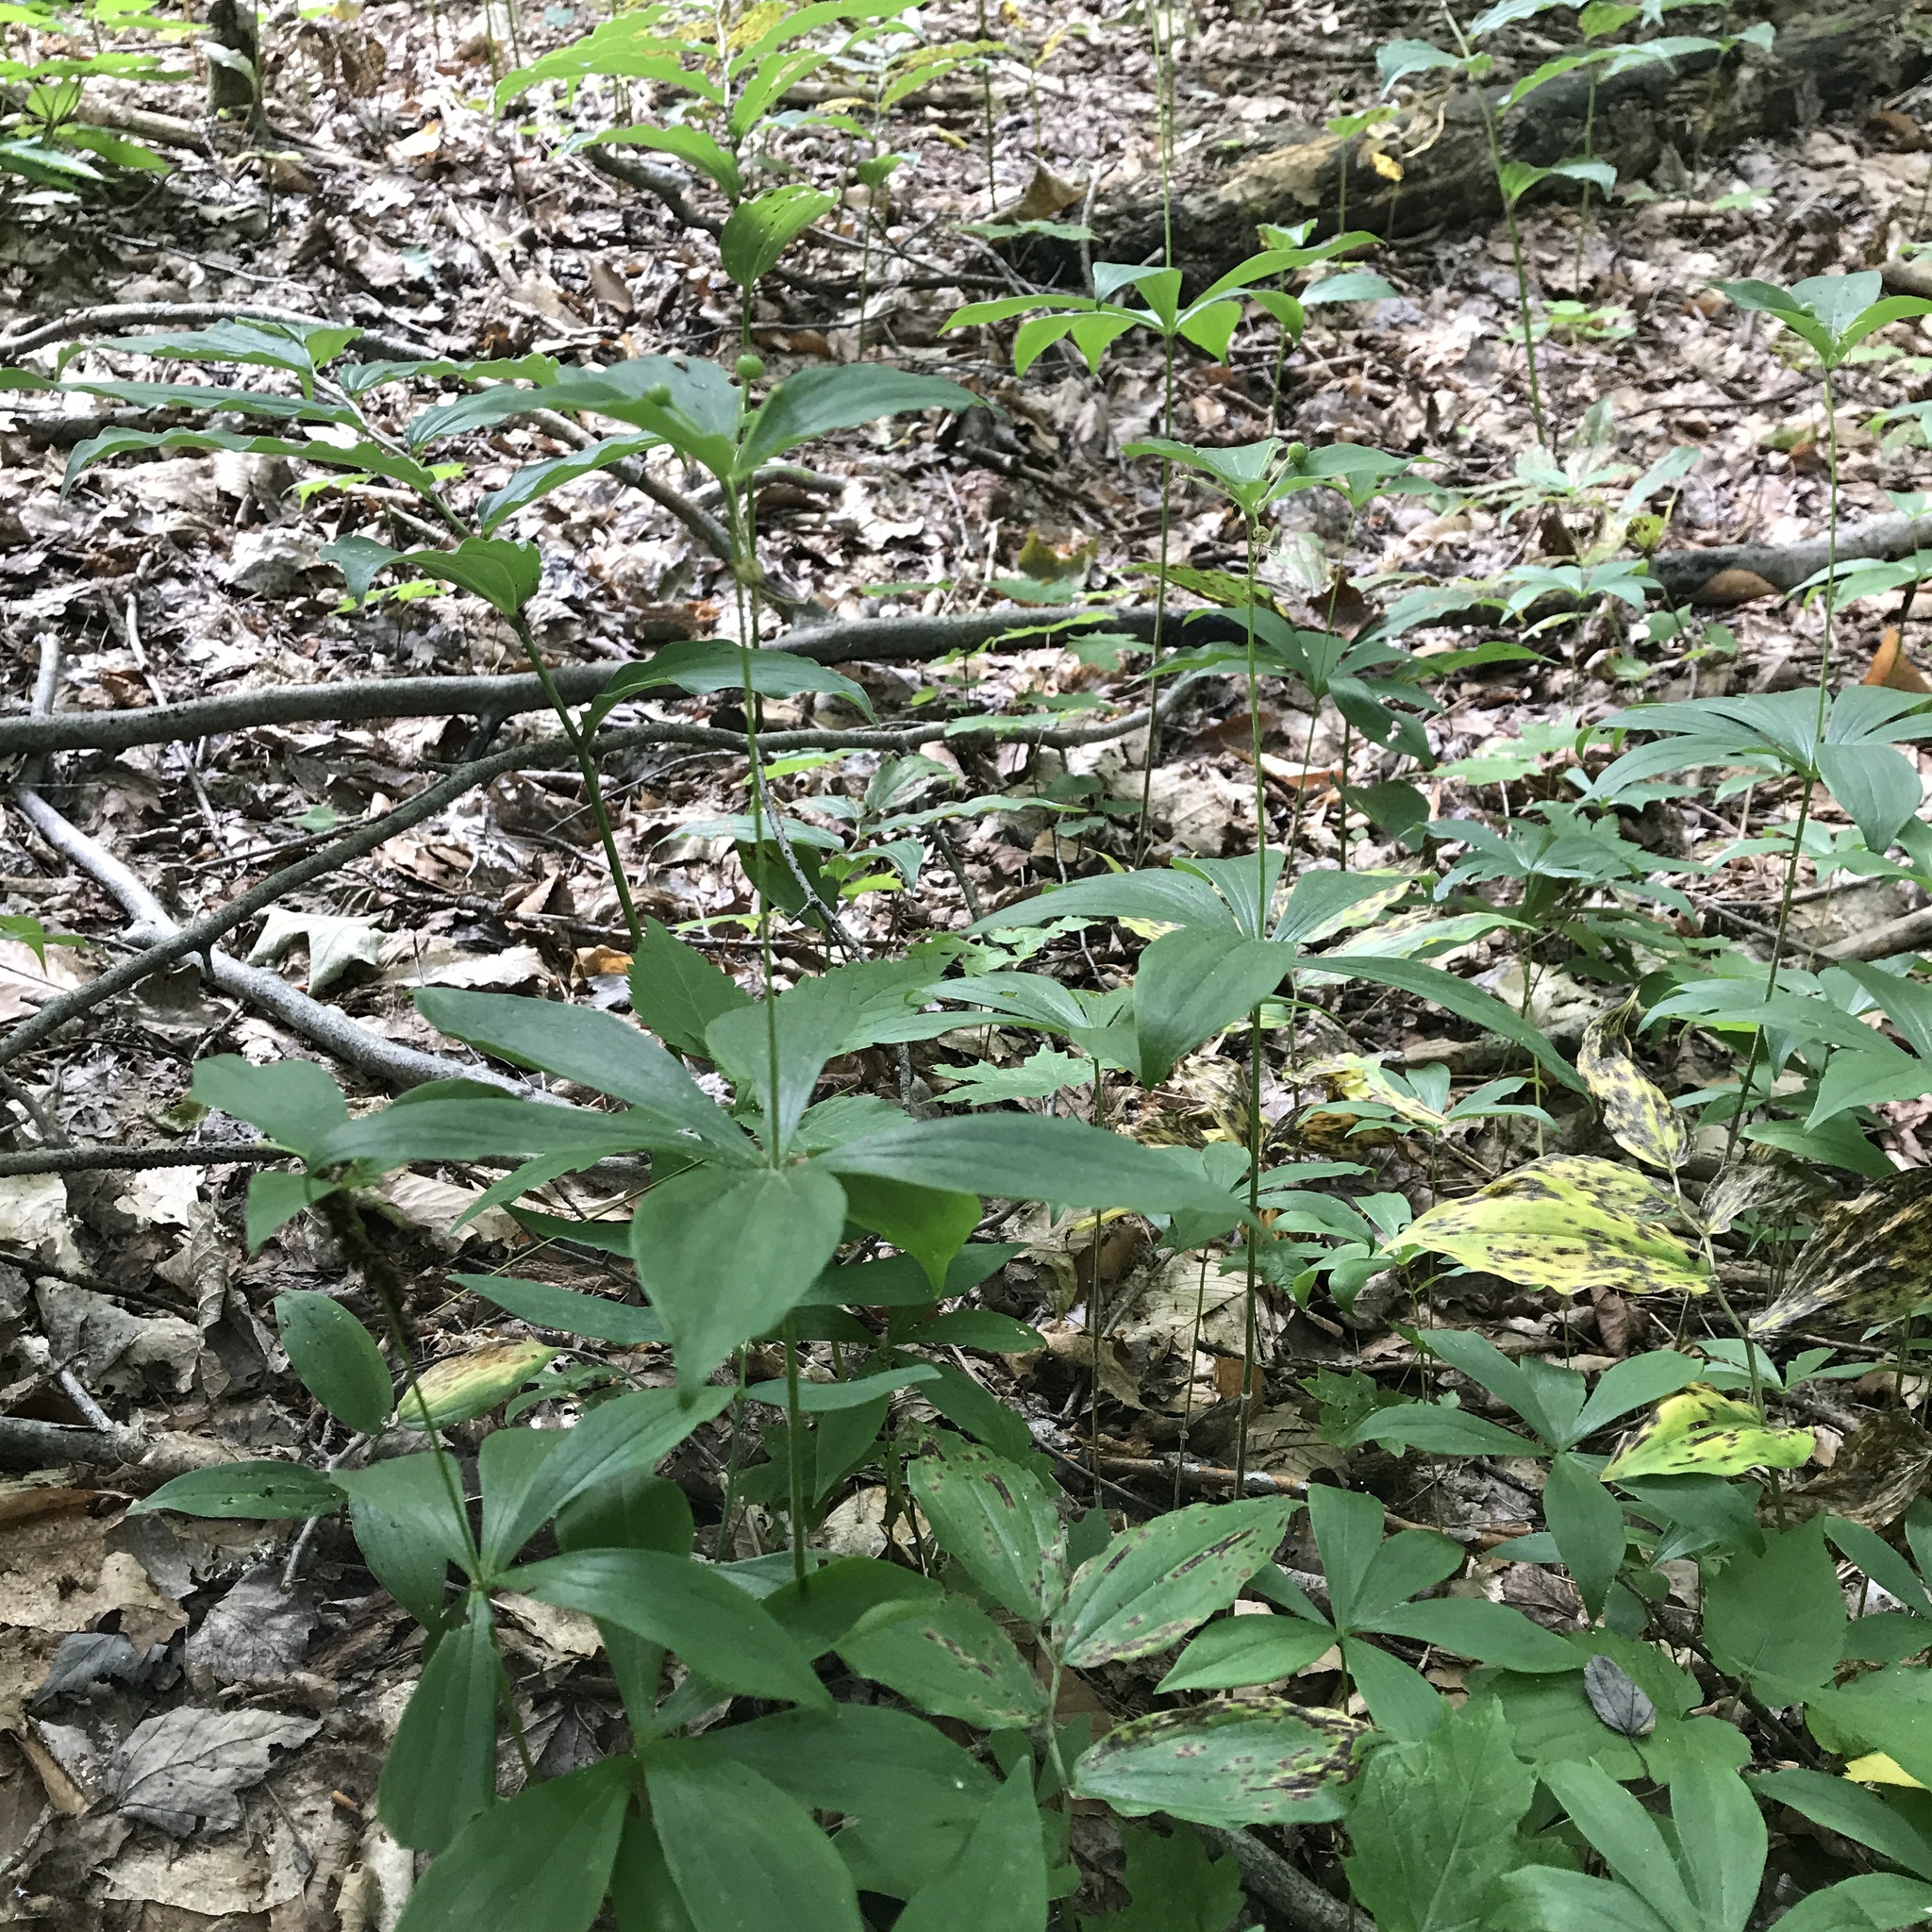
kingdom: Plantae
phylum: Tracheophyta
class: Liliopsida
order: Liliales
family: Liliaceae
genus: Medeola
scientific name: Medeola virginiana
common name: Indian cucumber-root
